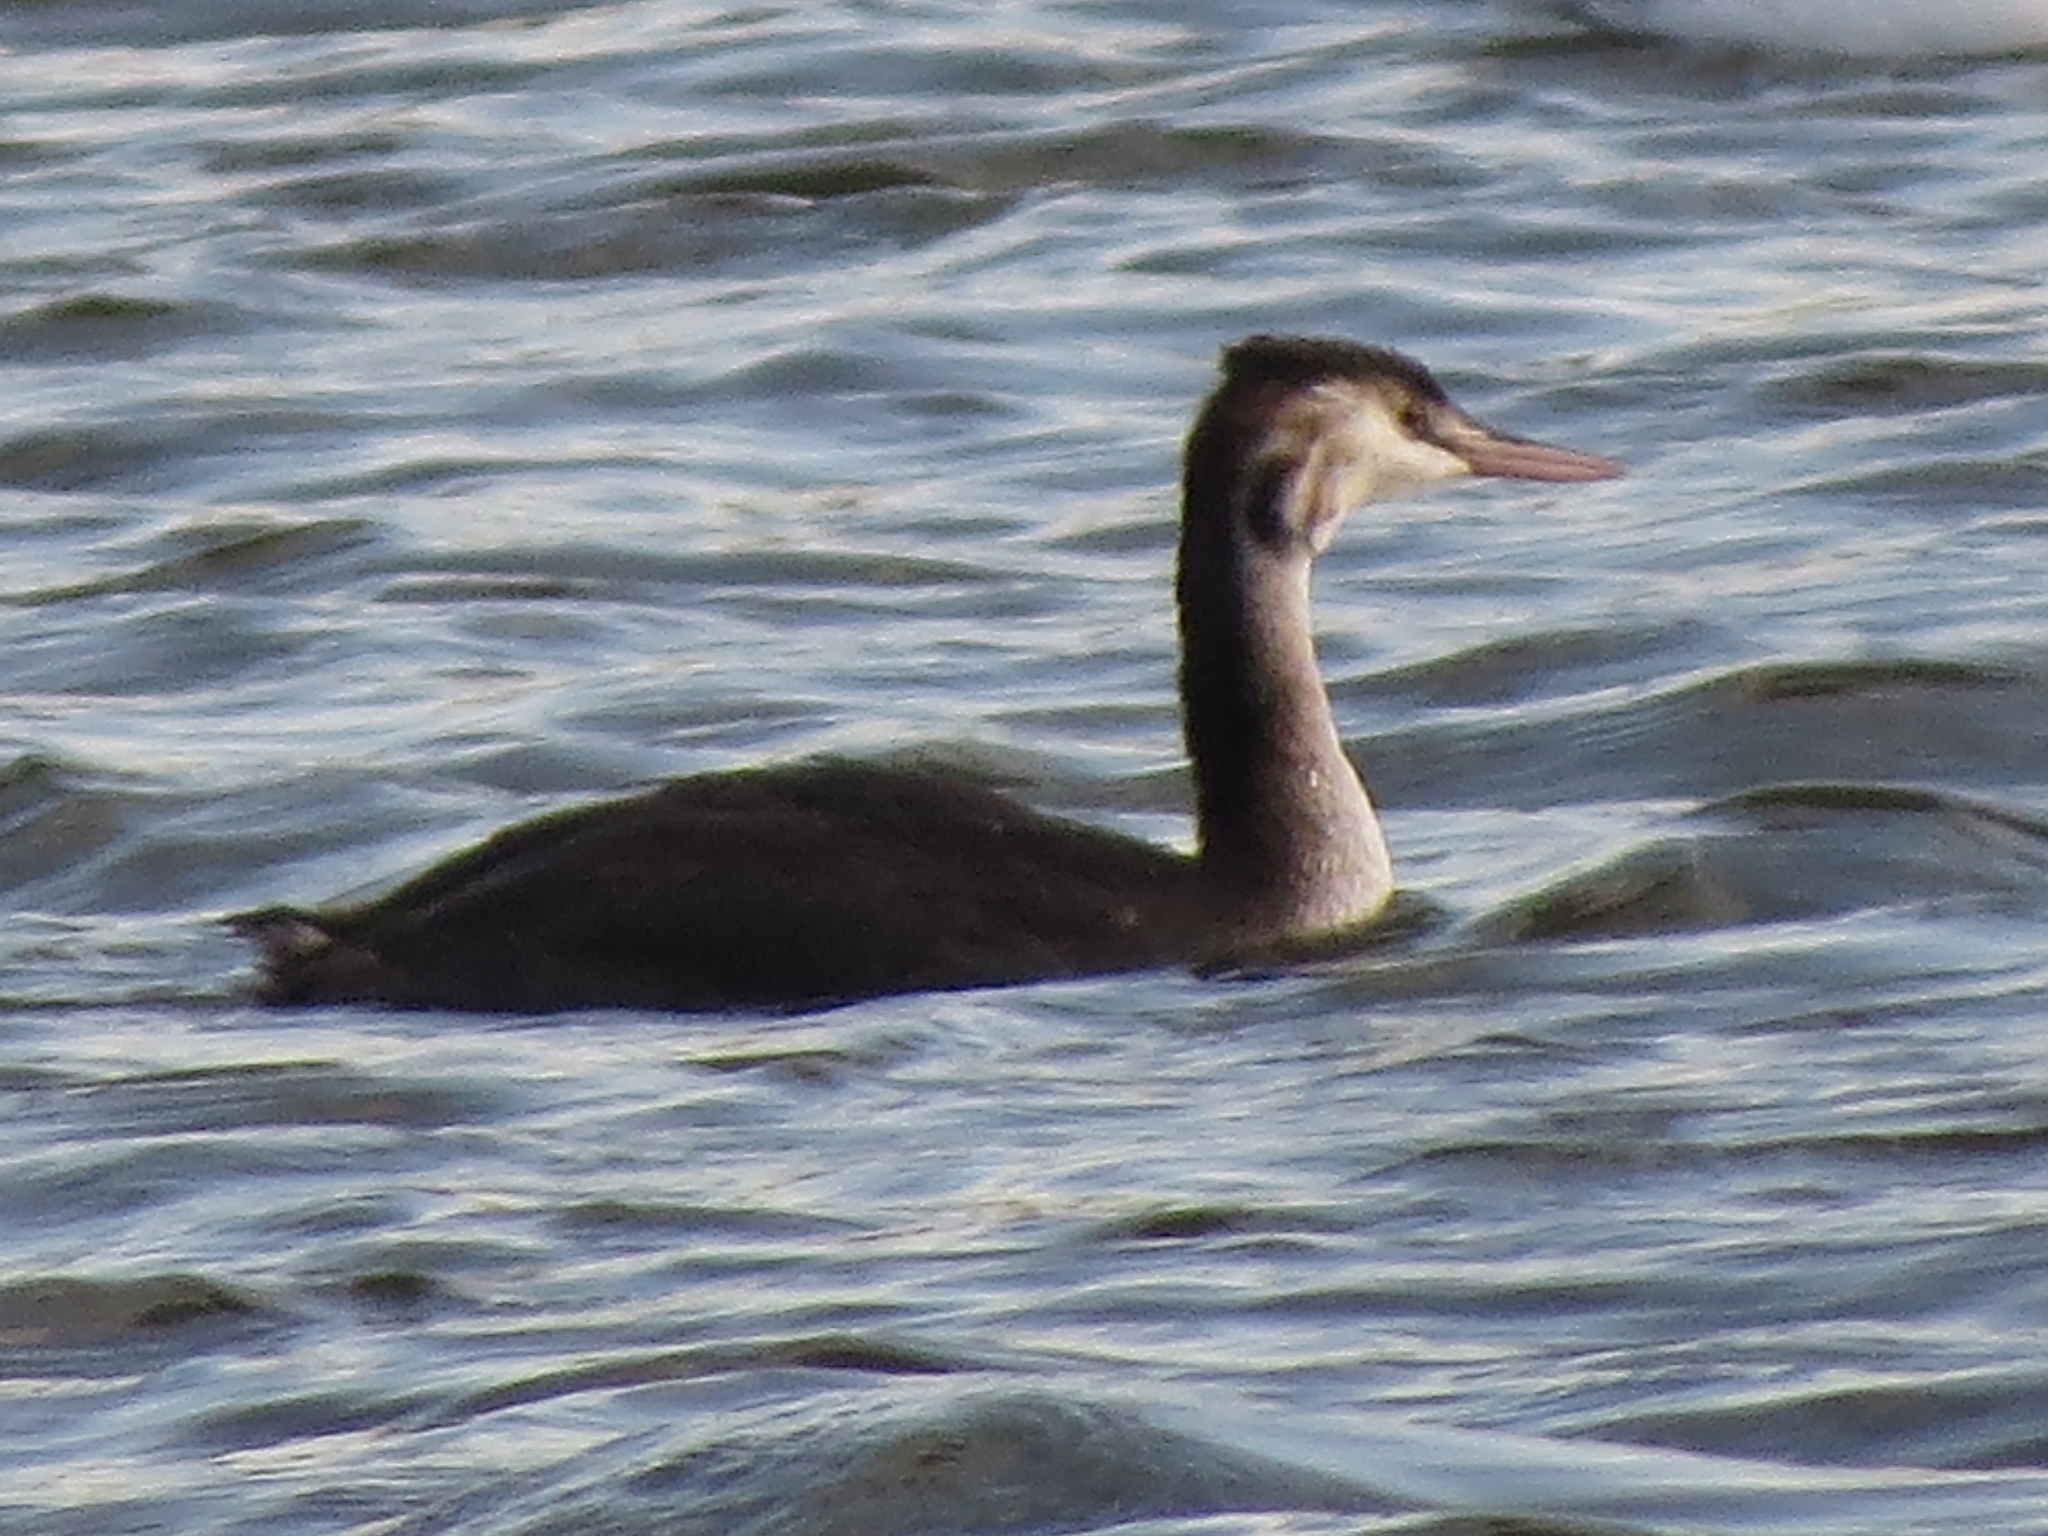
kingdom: Animalia
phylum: Chordata
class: Aves
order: Podicipediformes
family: Podicipedidae
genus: Podiceps
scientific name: Podiceps cristatus
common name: Great crested grebe
